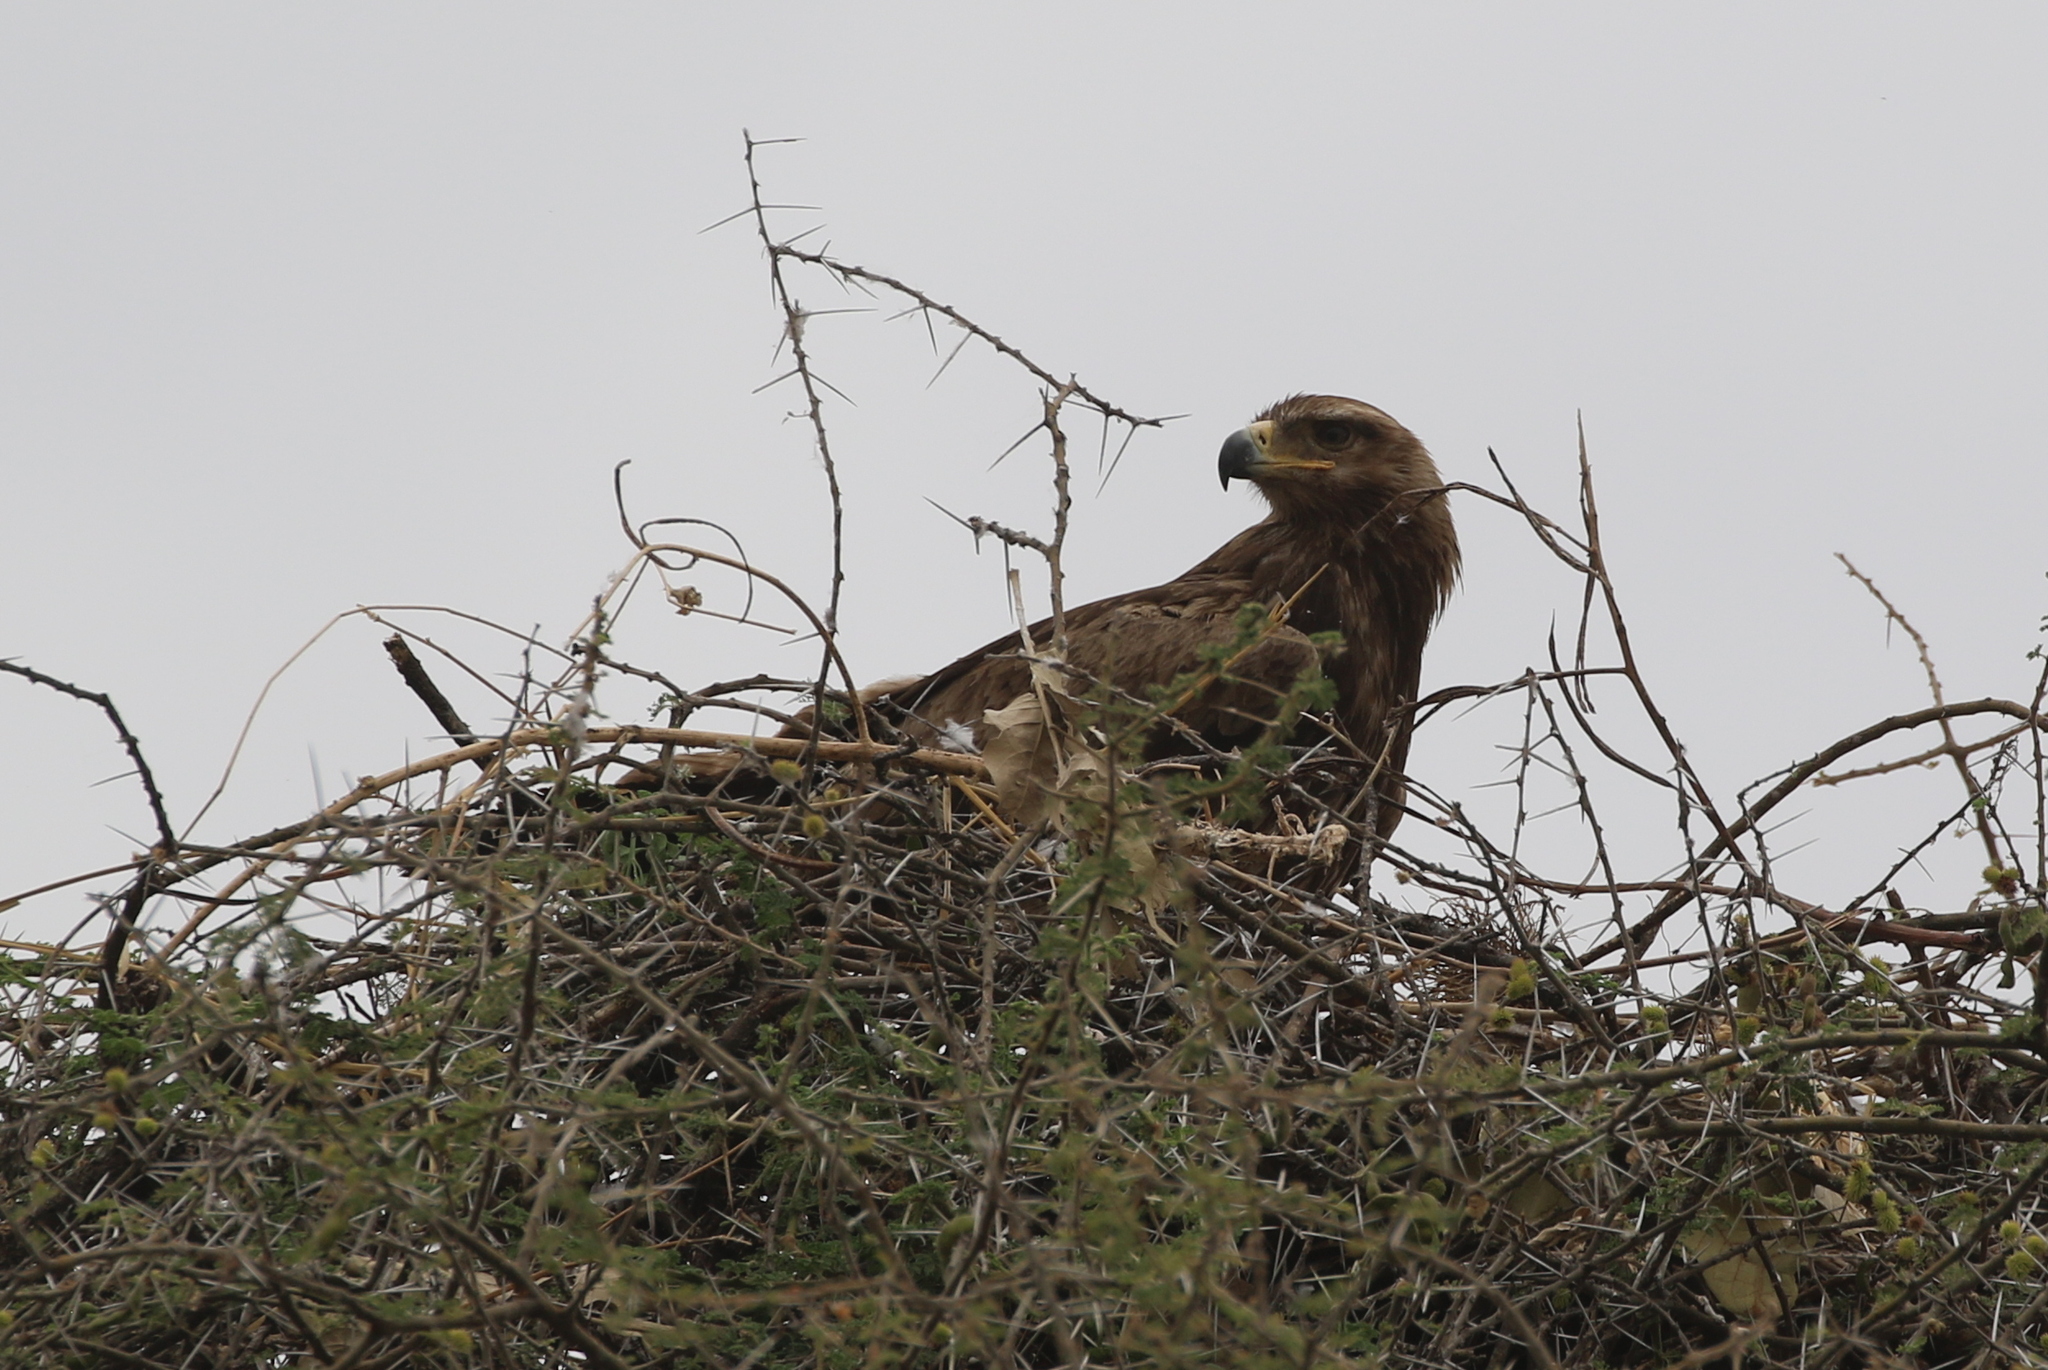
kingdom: Animalia
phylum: Chordata
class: Aves
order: Accipitriformes
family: Accipitridae
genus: Aquila
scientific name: Aquila rapax
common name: Tawny eagle
